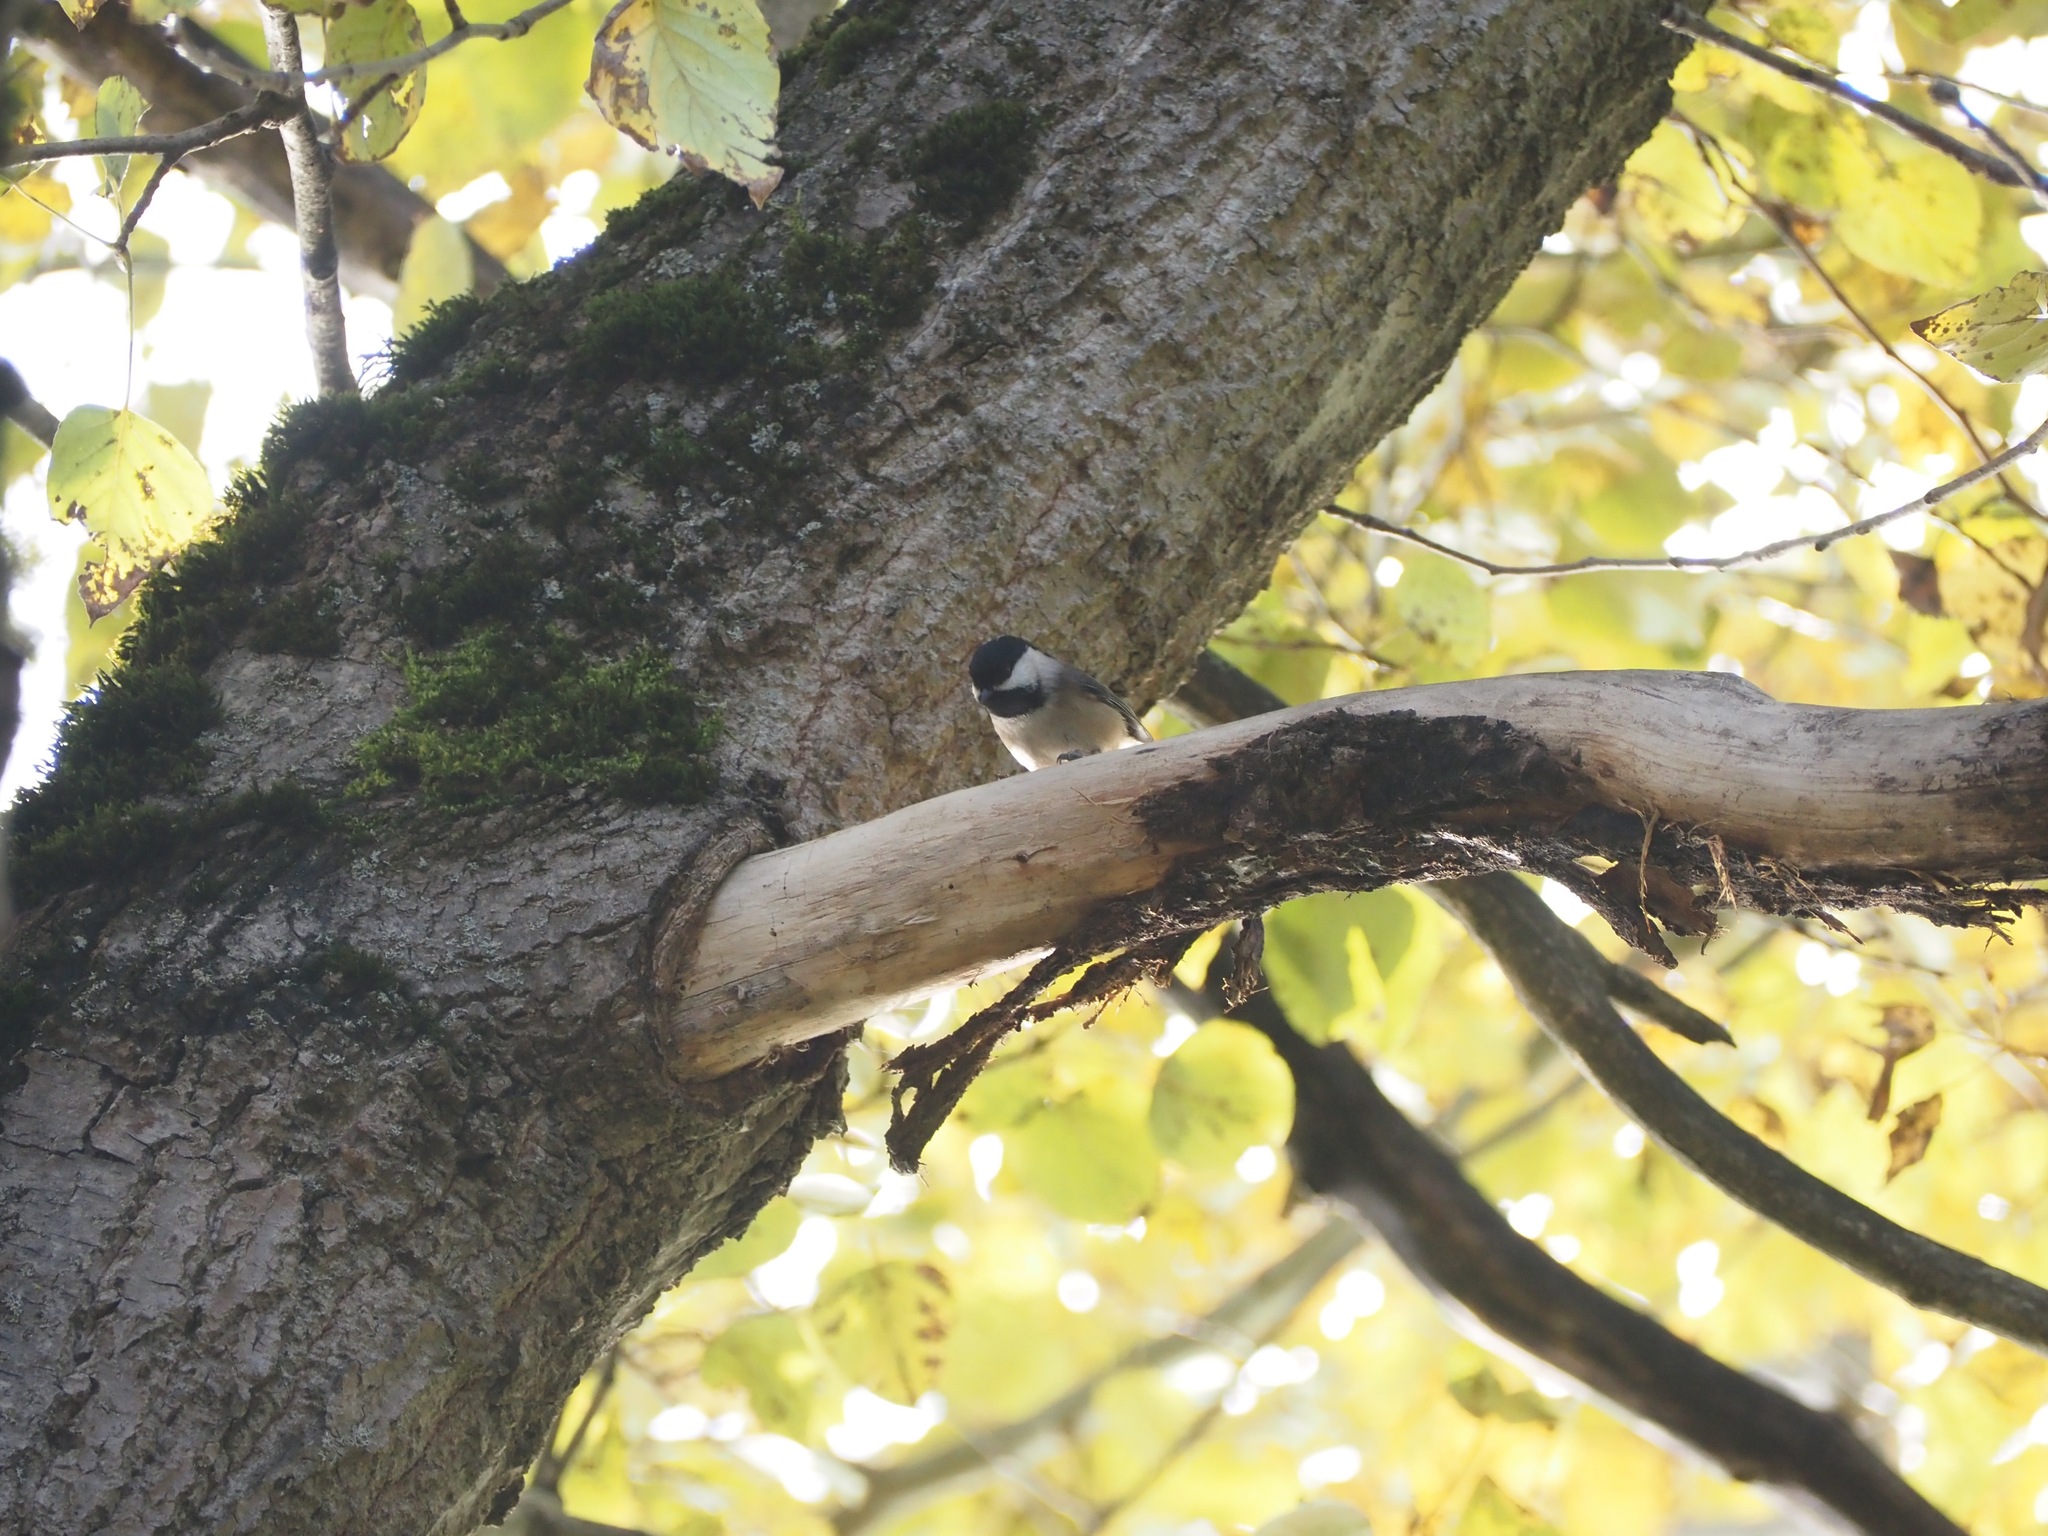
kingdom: Animalia
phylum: Chordata
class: Aves
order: Passeriformes
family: Paridae
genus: Poecile
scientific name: Poecile atricapillus
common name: Black-capped chickadee
